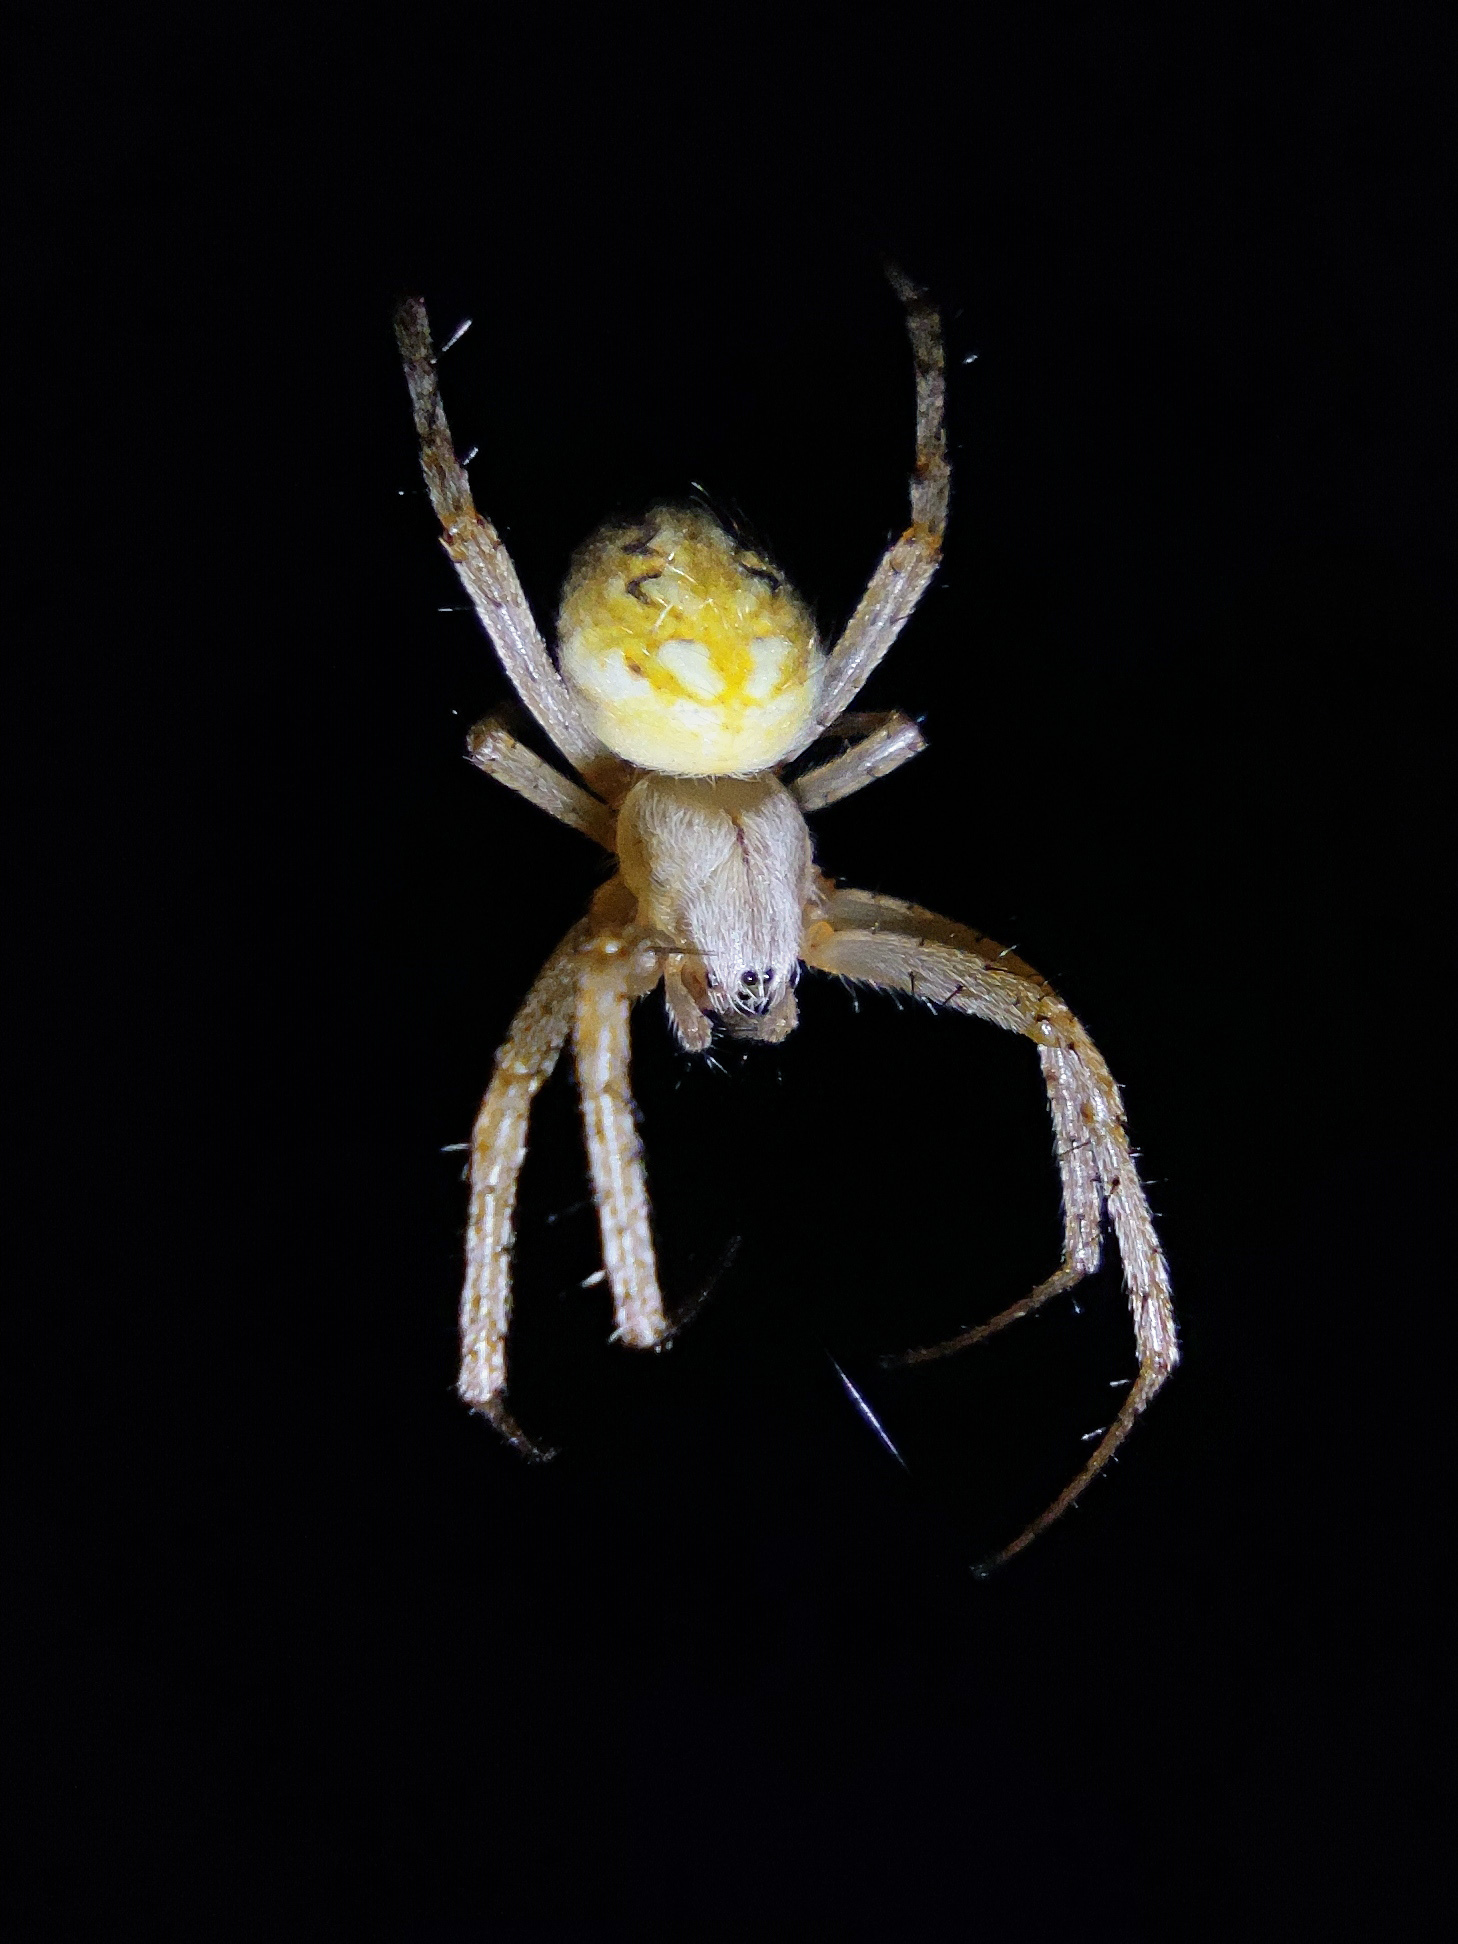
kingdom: Animalia
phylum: Arthropoda
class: Arachnida
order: Araneae
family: Araneidae
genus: Neoscona
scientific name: Neoscona adianta
